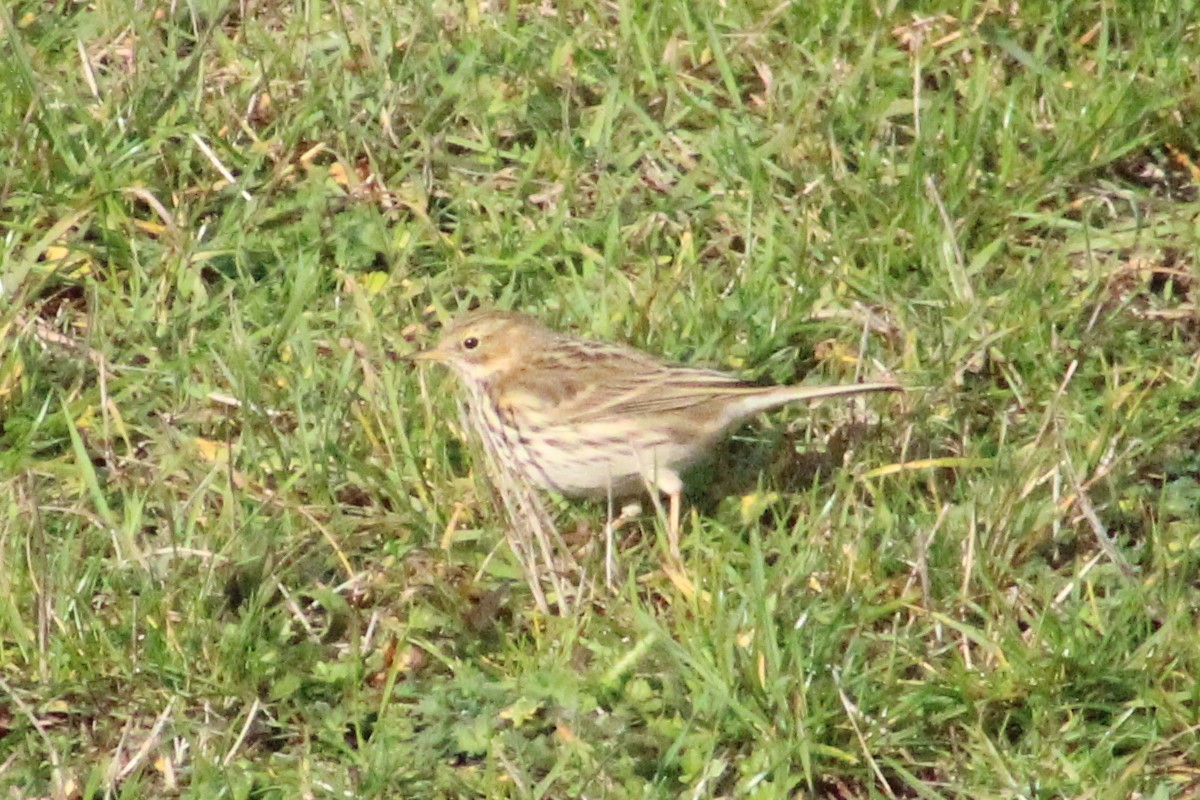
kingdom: Animalia
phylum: Chordata
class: Aves
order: Passeriformes
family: Motacillidae
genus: Anthus
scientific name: Anthus pratensis
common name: Meadow pipit
